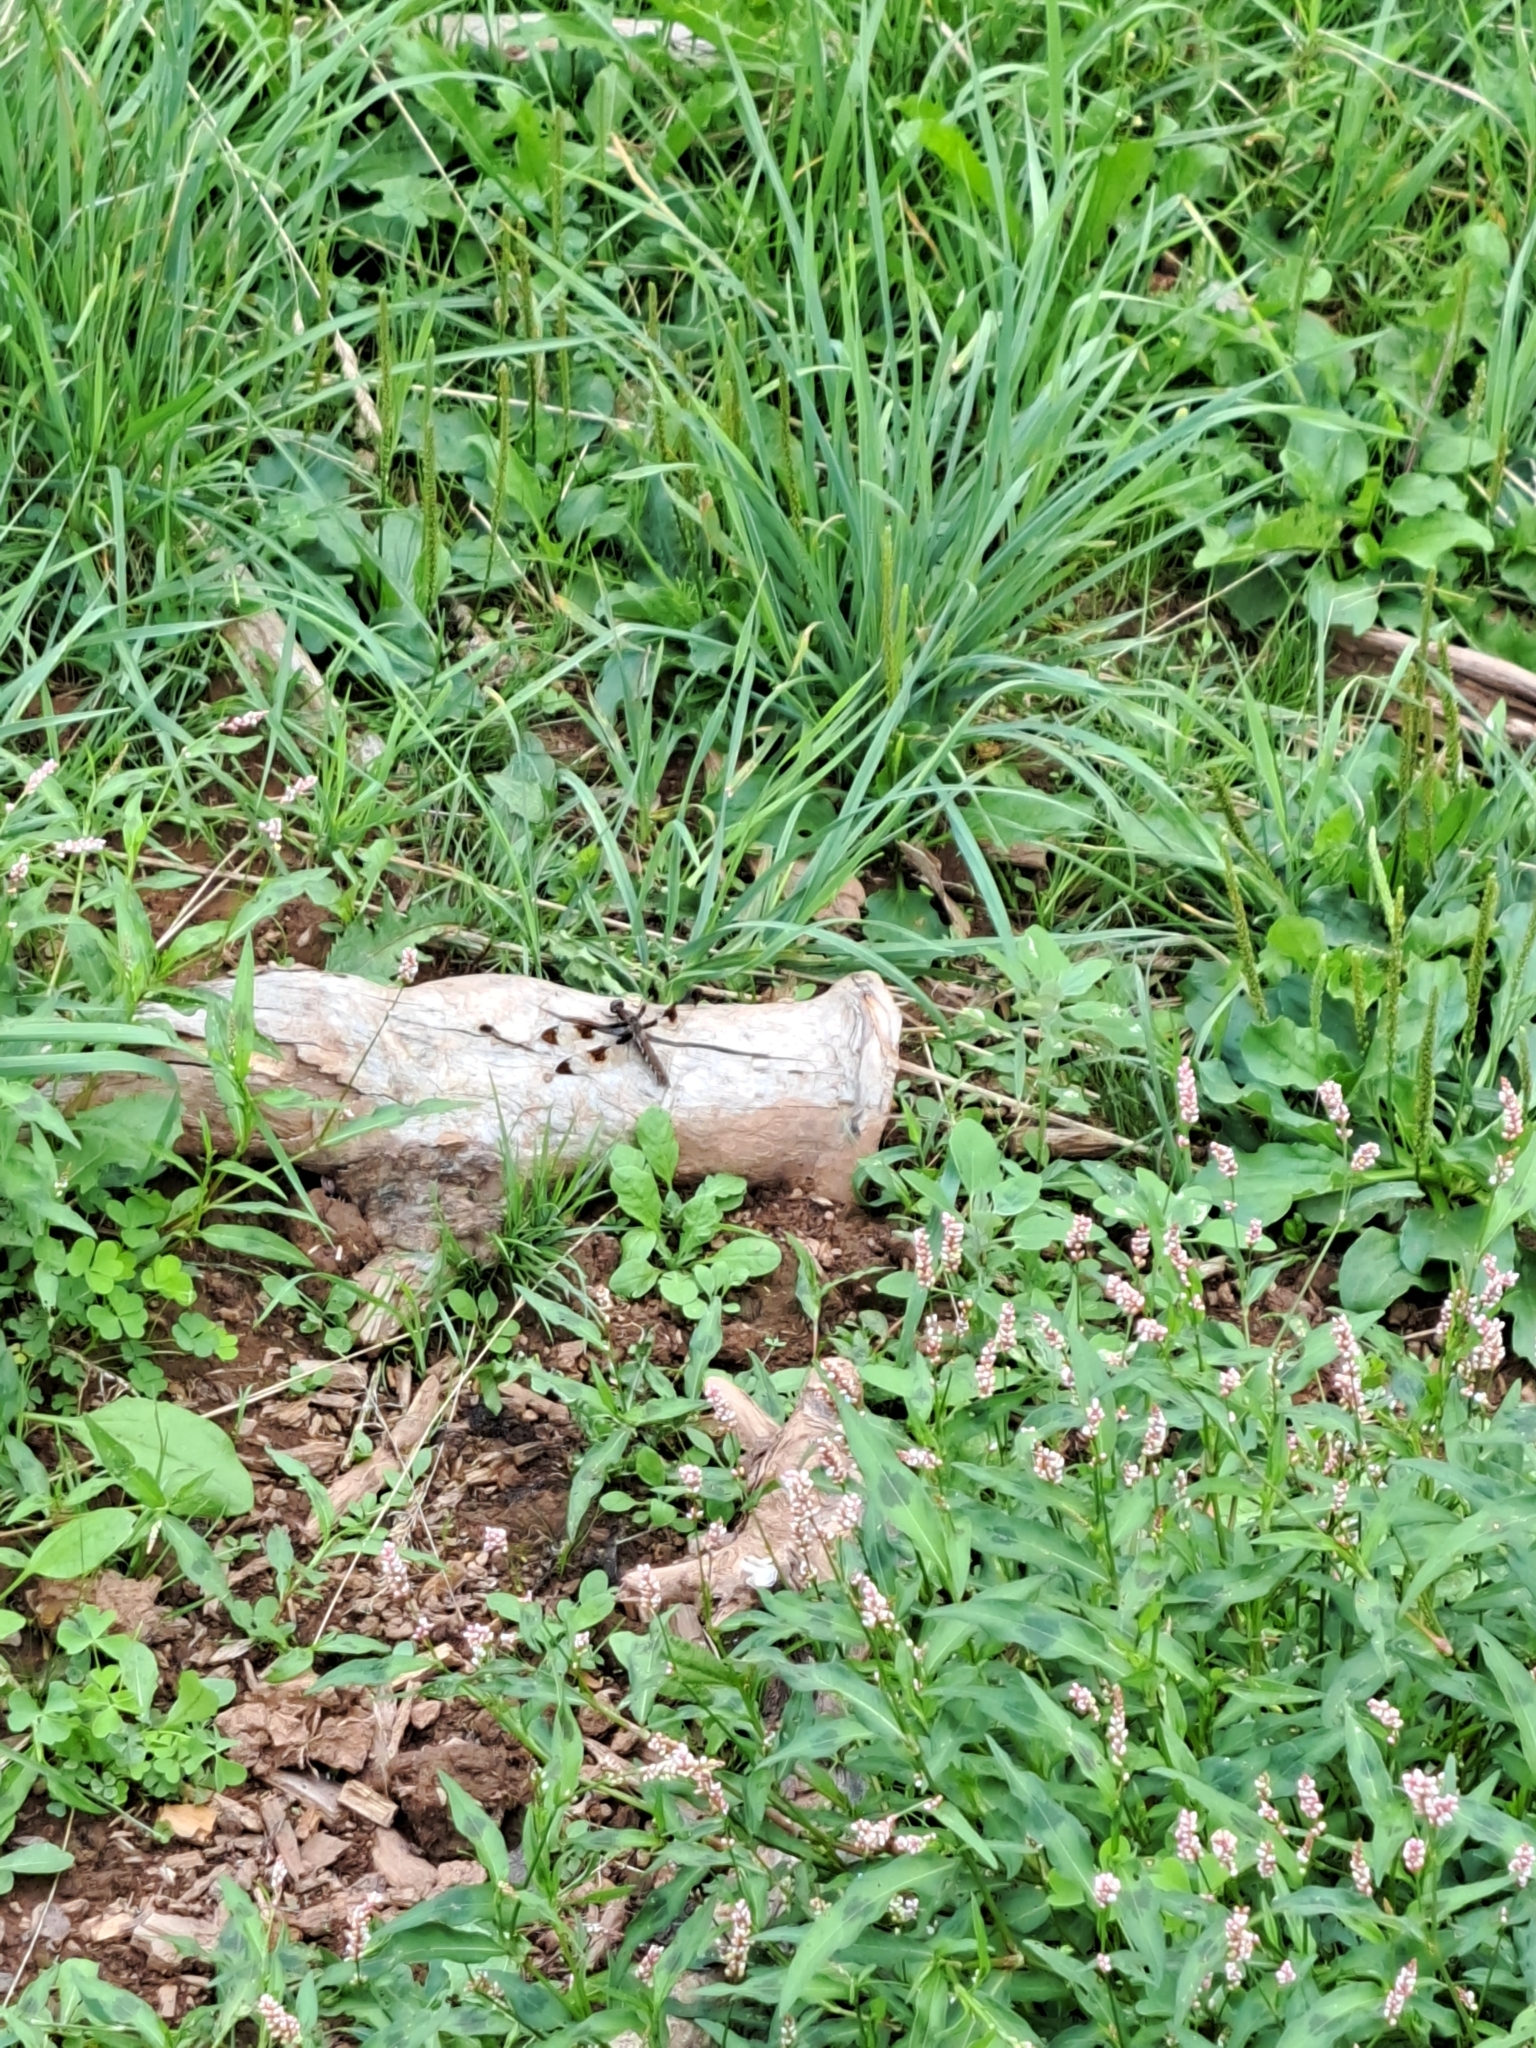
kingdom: Animalia
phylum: Arthropoda
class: Insecta
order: Odonata
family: Libellulidae
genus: Plathemis
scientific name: Plathemis lydia
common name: Common whitetail
